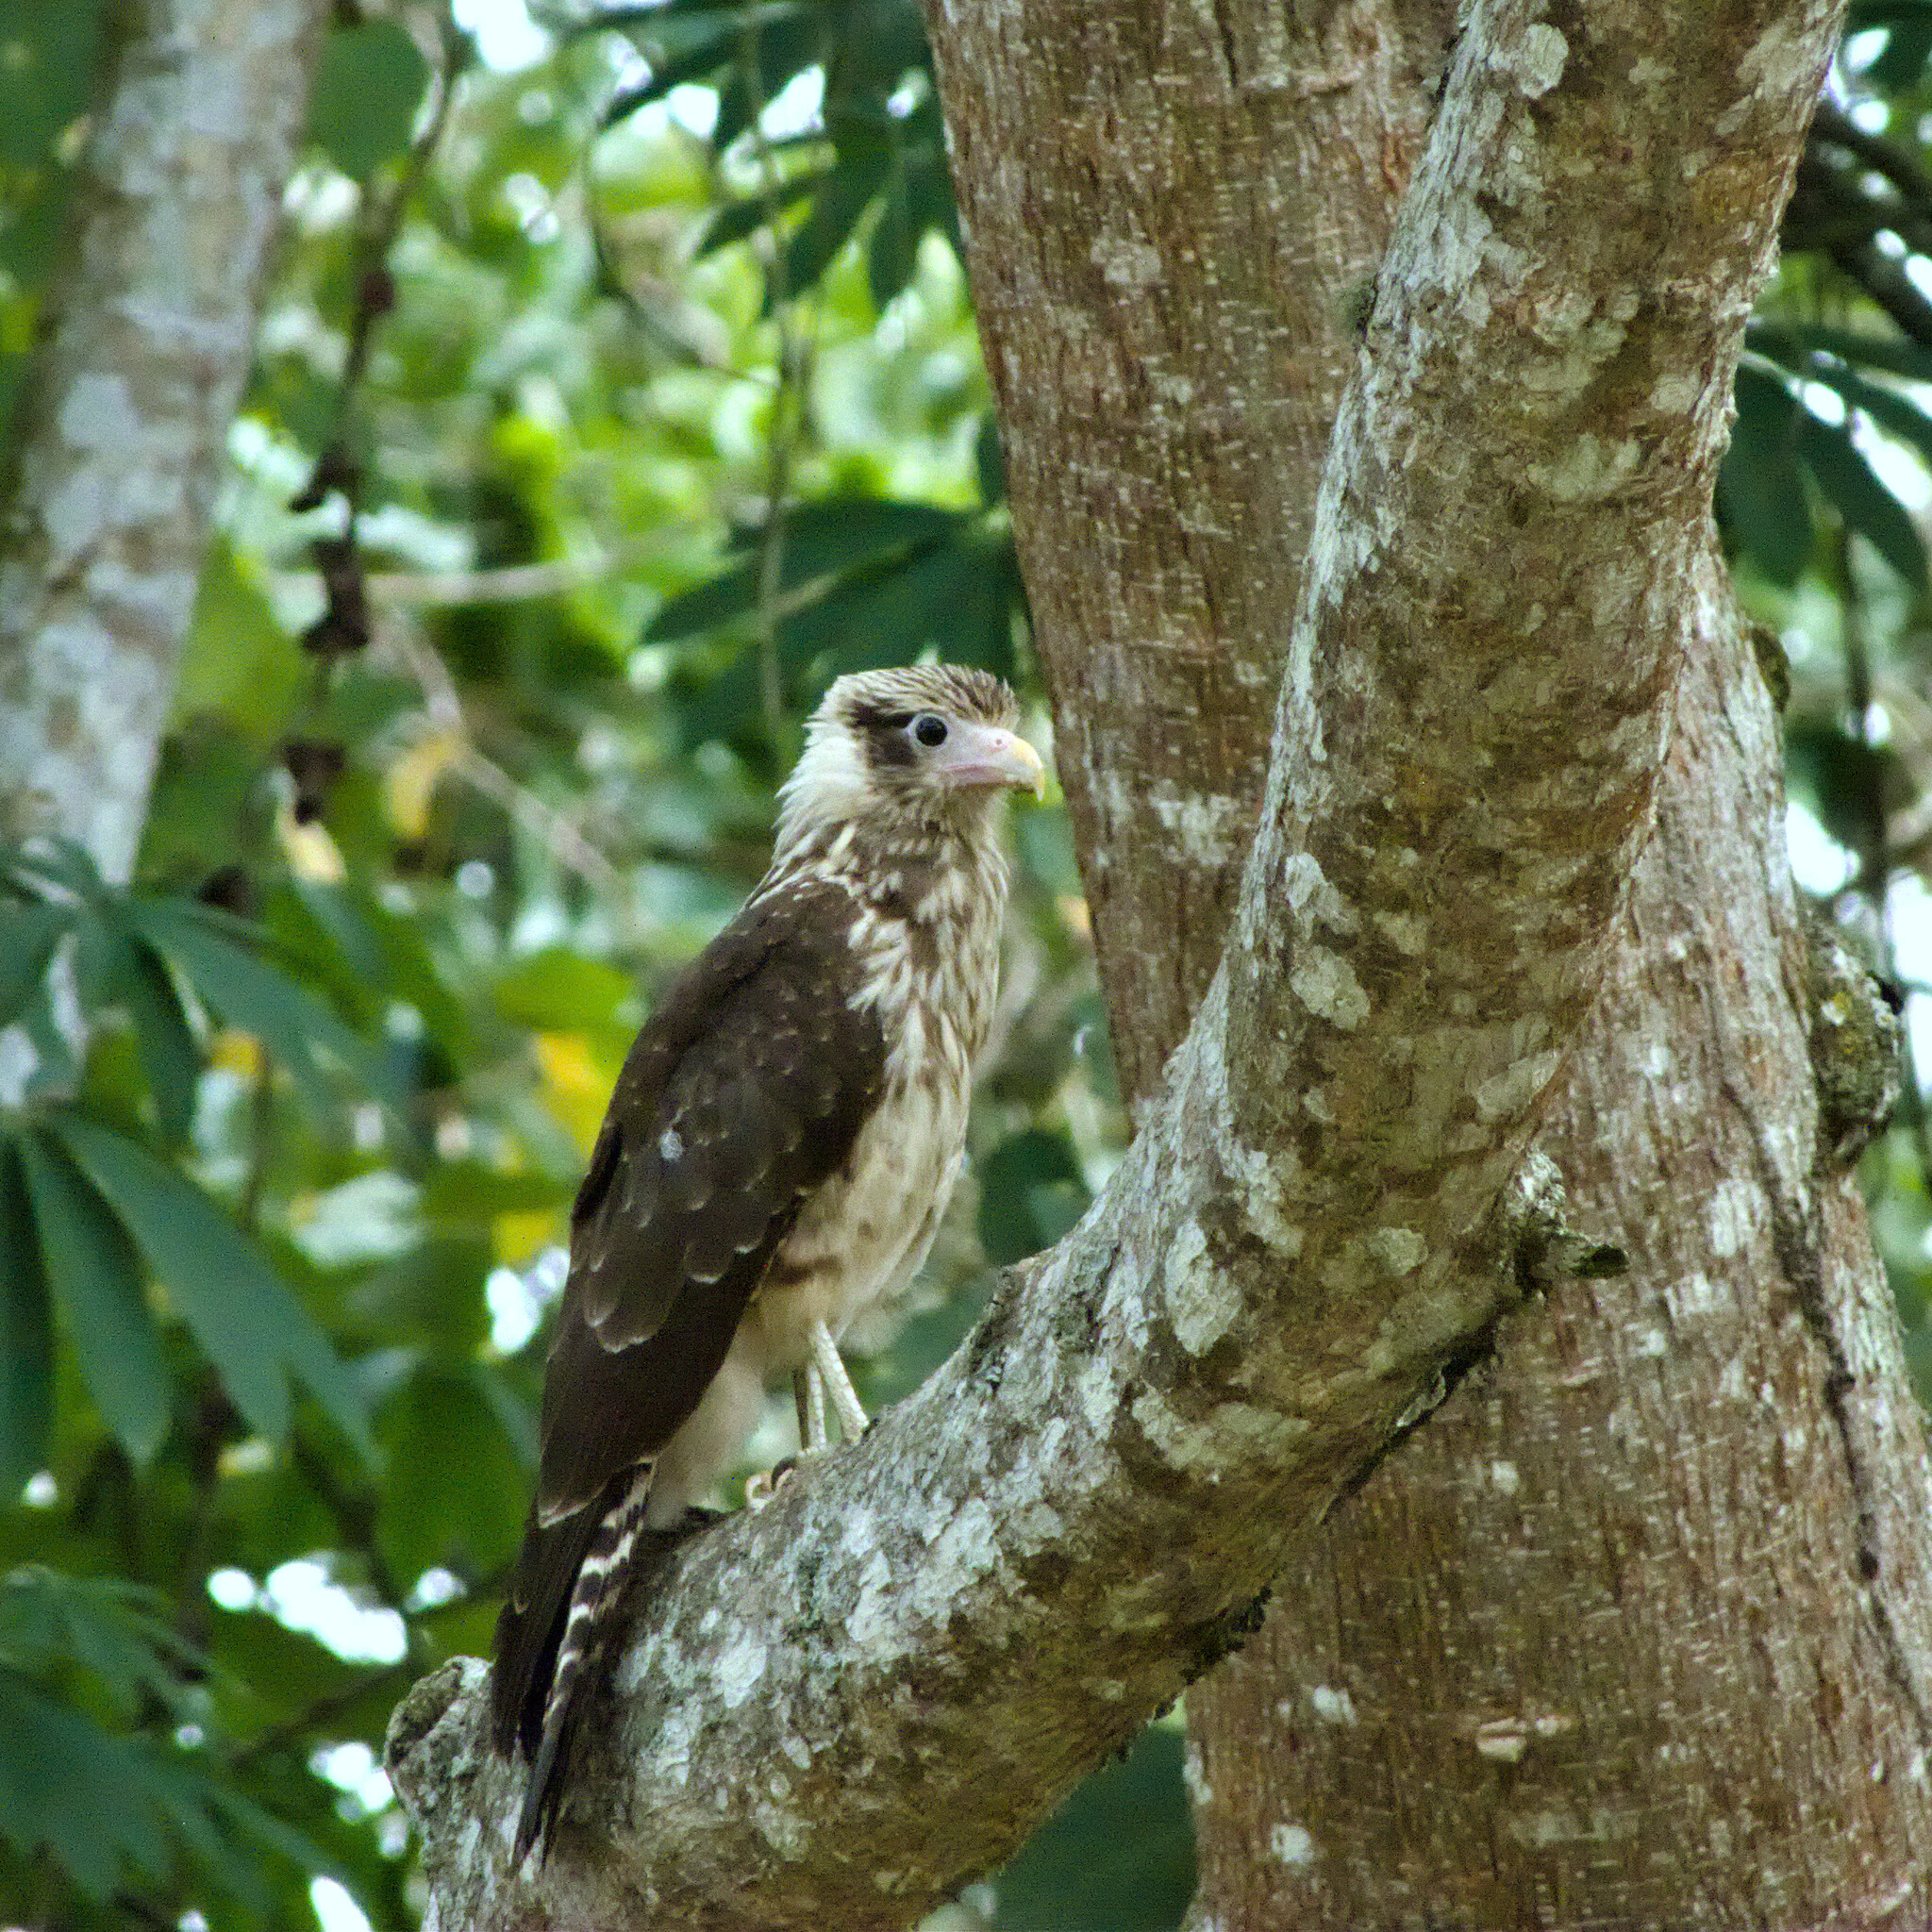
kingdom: Animalia
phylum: Chordata
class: Aves
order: Falconiformes
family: Falconidae
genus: Daptrius
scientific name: Daptrius
